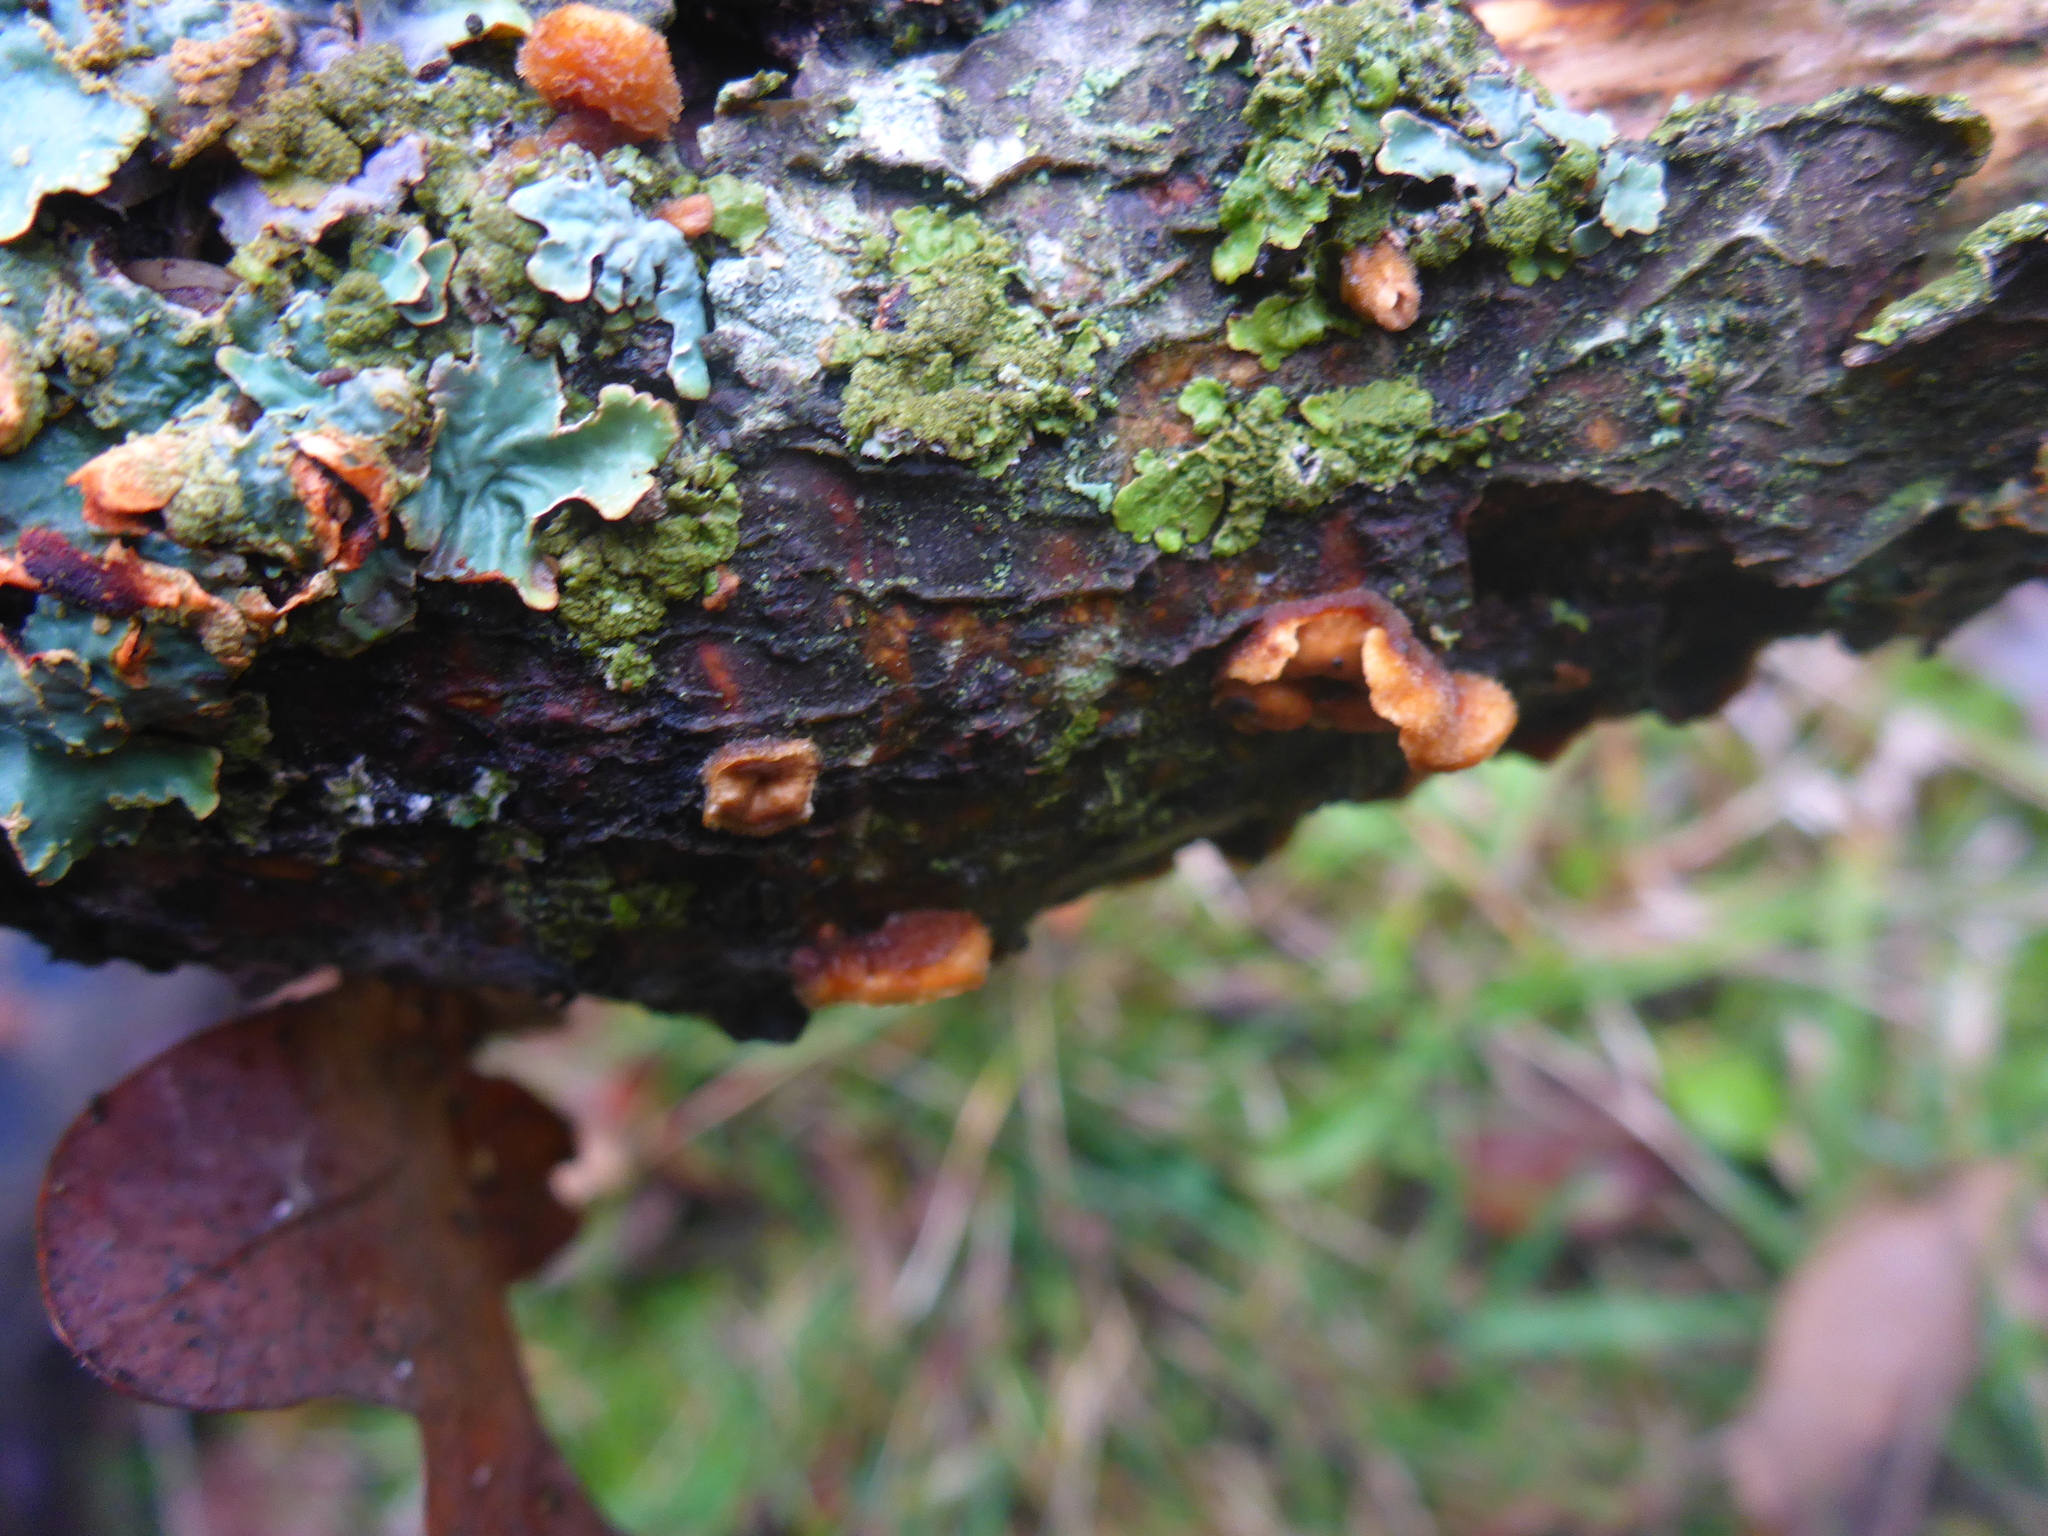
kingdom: Fungi
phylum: Ascomycota
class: Lecanoromycetes
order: Lecanorales
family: Parmeliaceae
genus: Parmelia
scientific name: Parmelia sulcata
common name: Netted shield lichen
